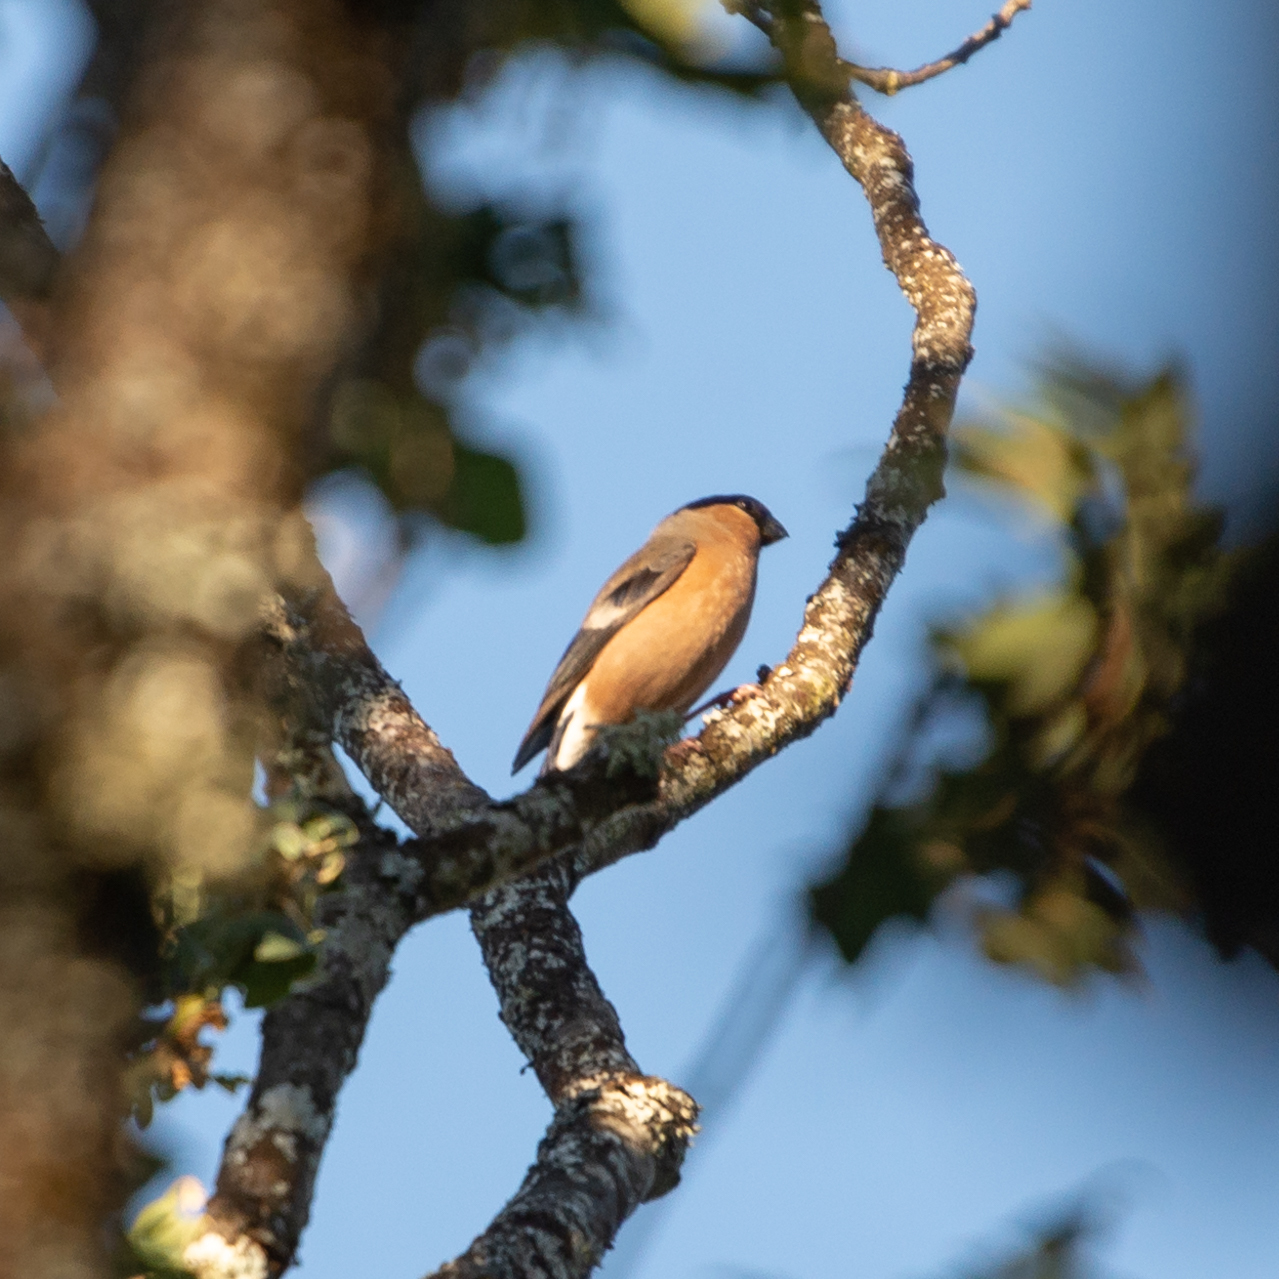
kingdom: Animalia
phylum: Chordata
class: Aves
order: Passeriformes
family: Fringillidae
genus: Pyrrhula
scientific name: Pyrrhula pyrrhula
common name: Eurasian bullfinch
